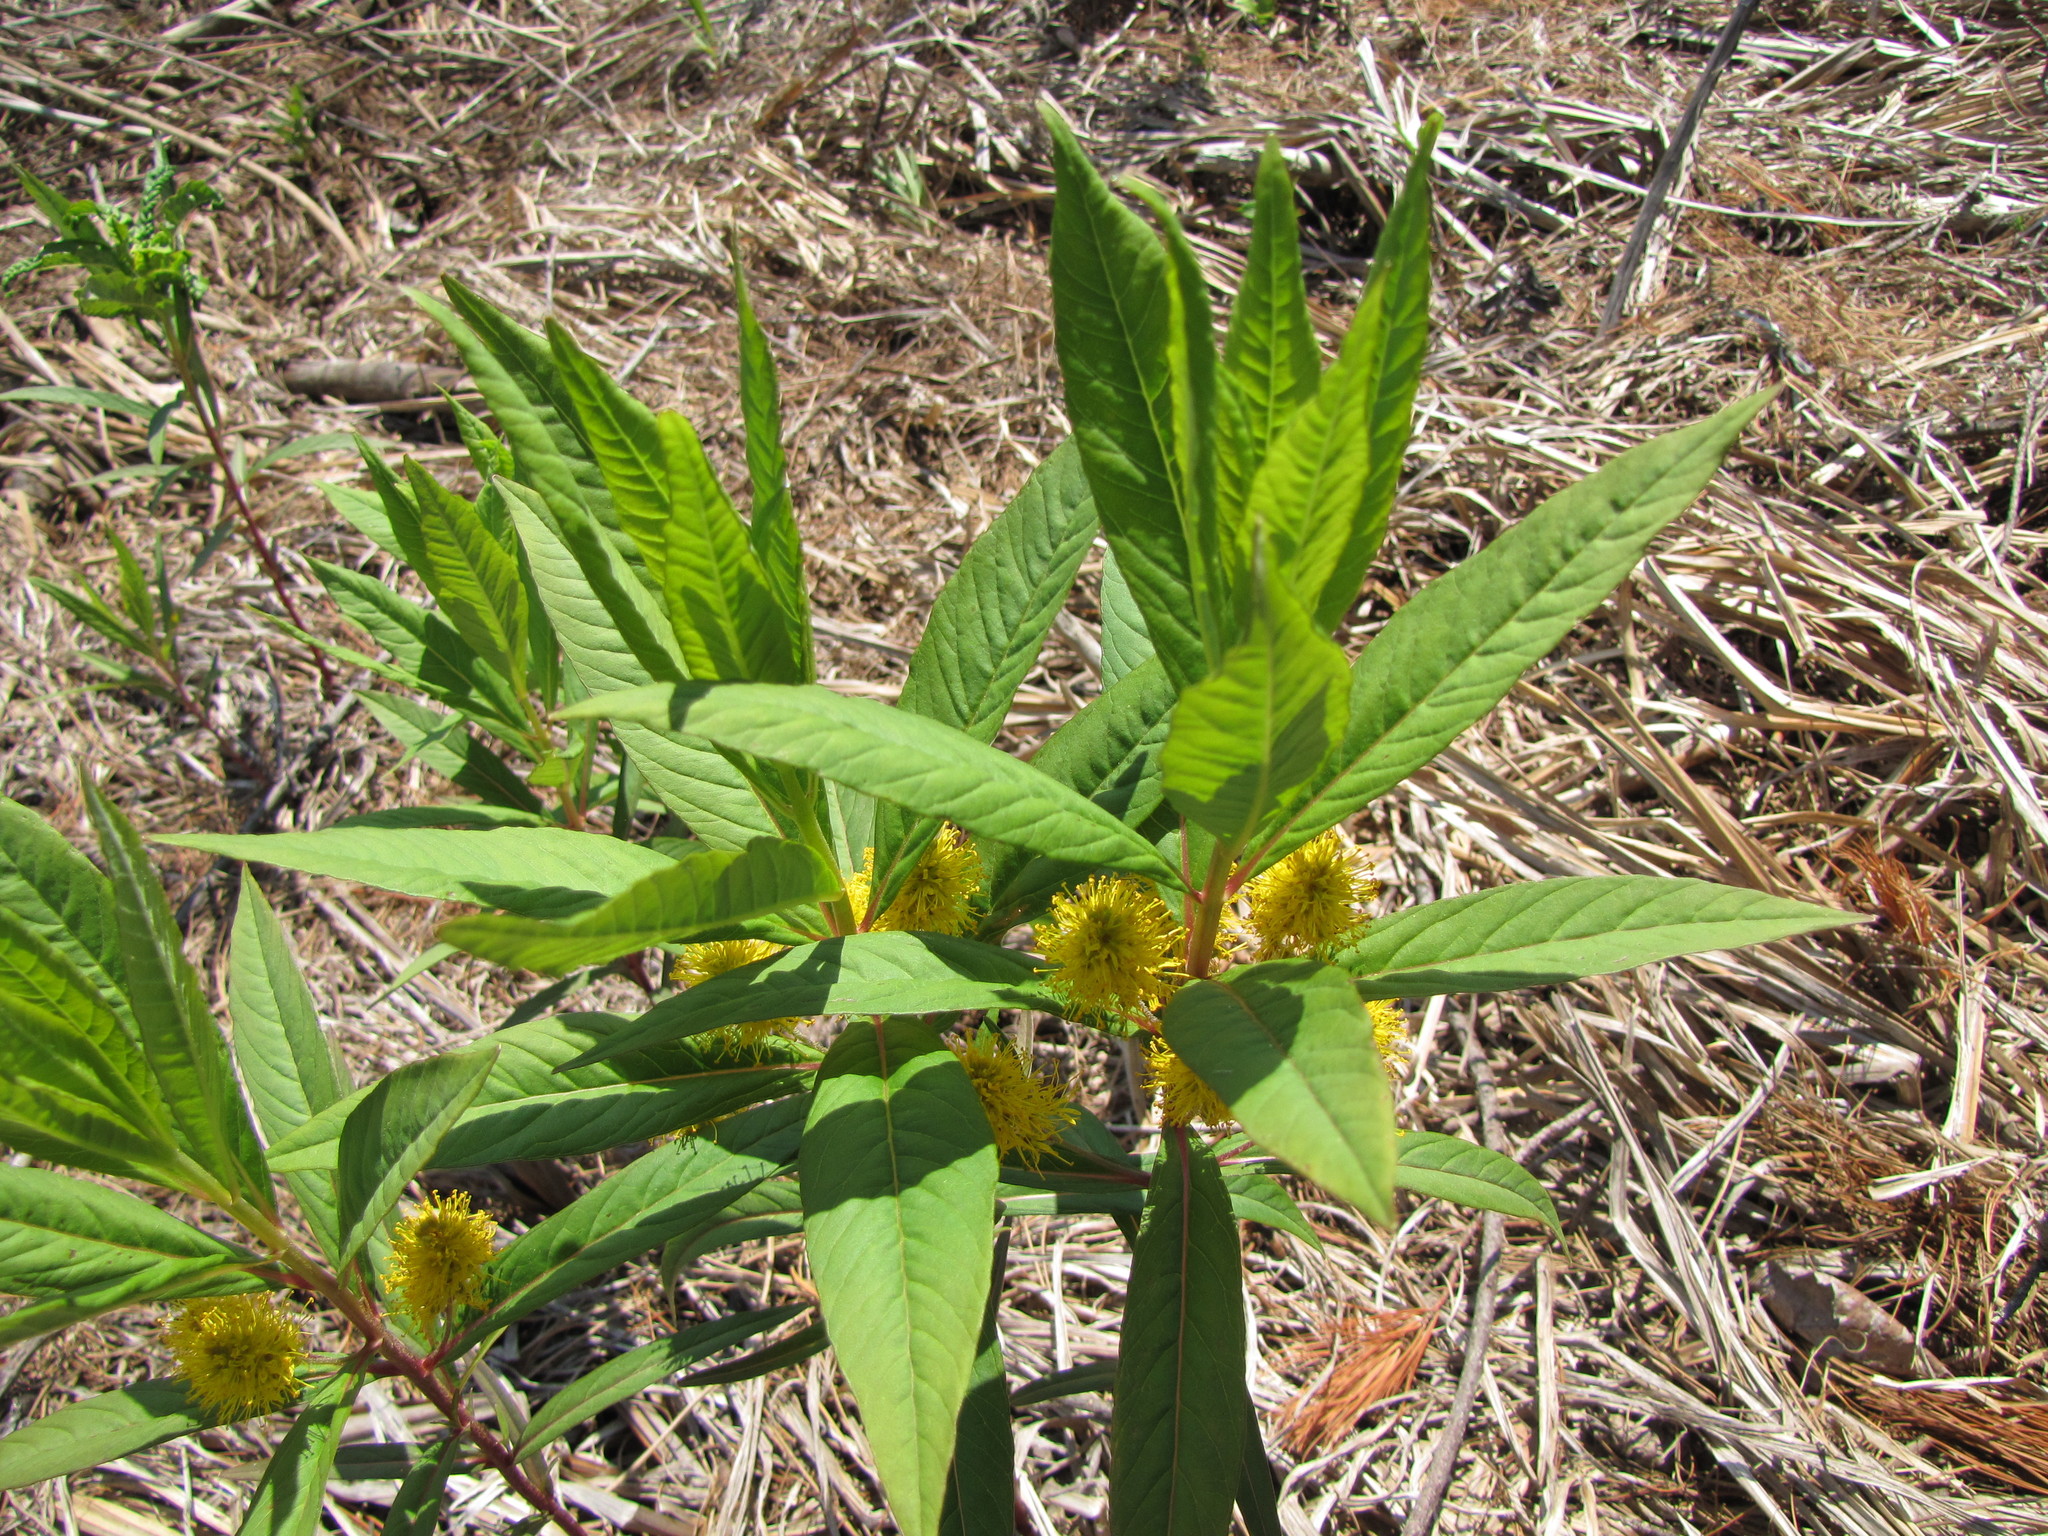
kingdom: Plantae
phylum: Tracheophyta
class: Magnoliopsida
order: Ericales
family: Primulaceae
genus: Lysimachia
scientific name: Lysimachia thyrsiflora
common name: Tufted loosestrife
